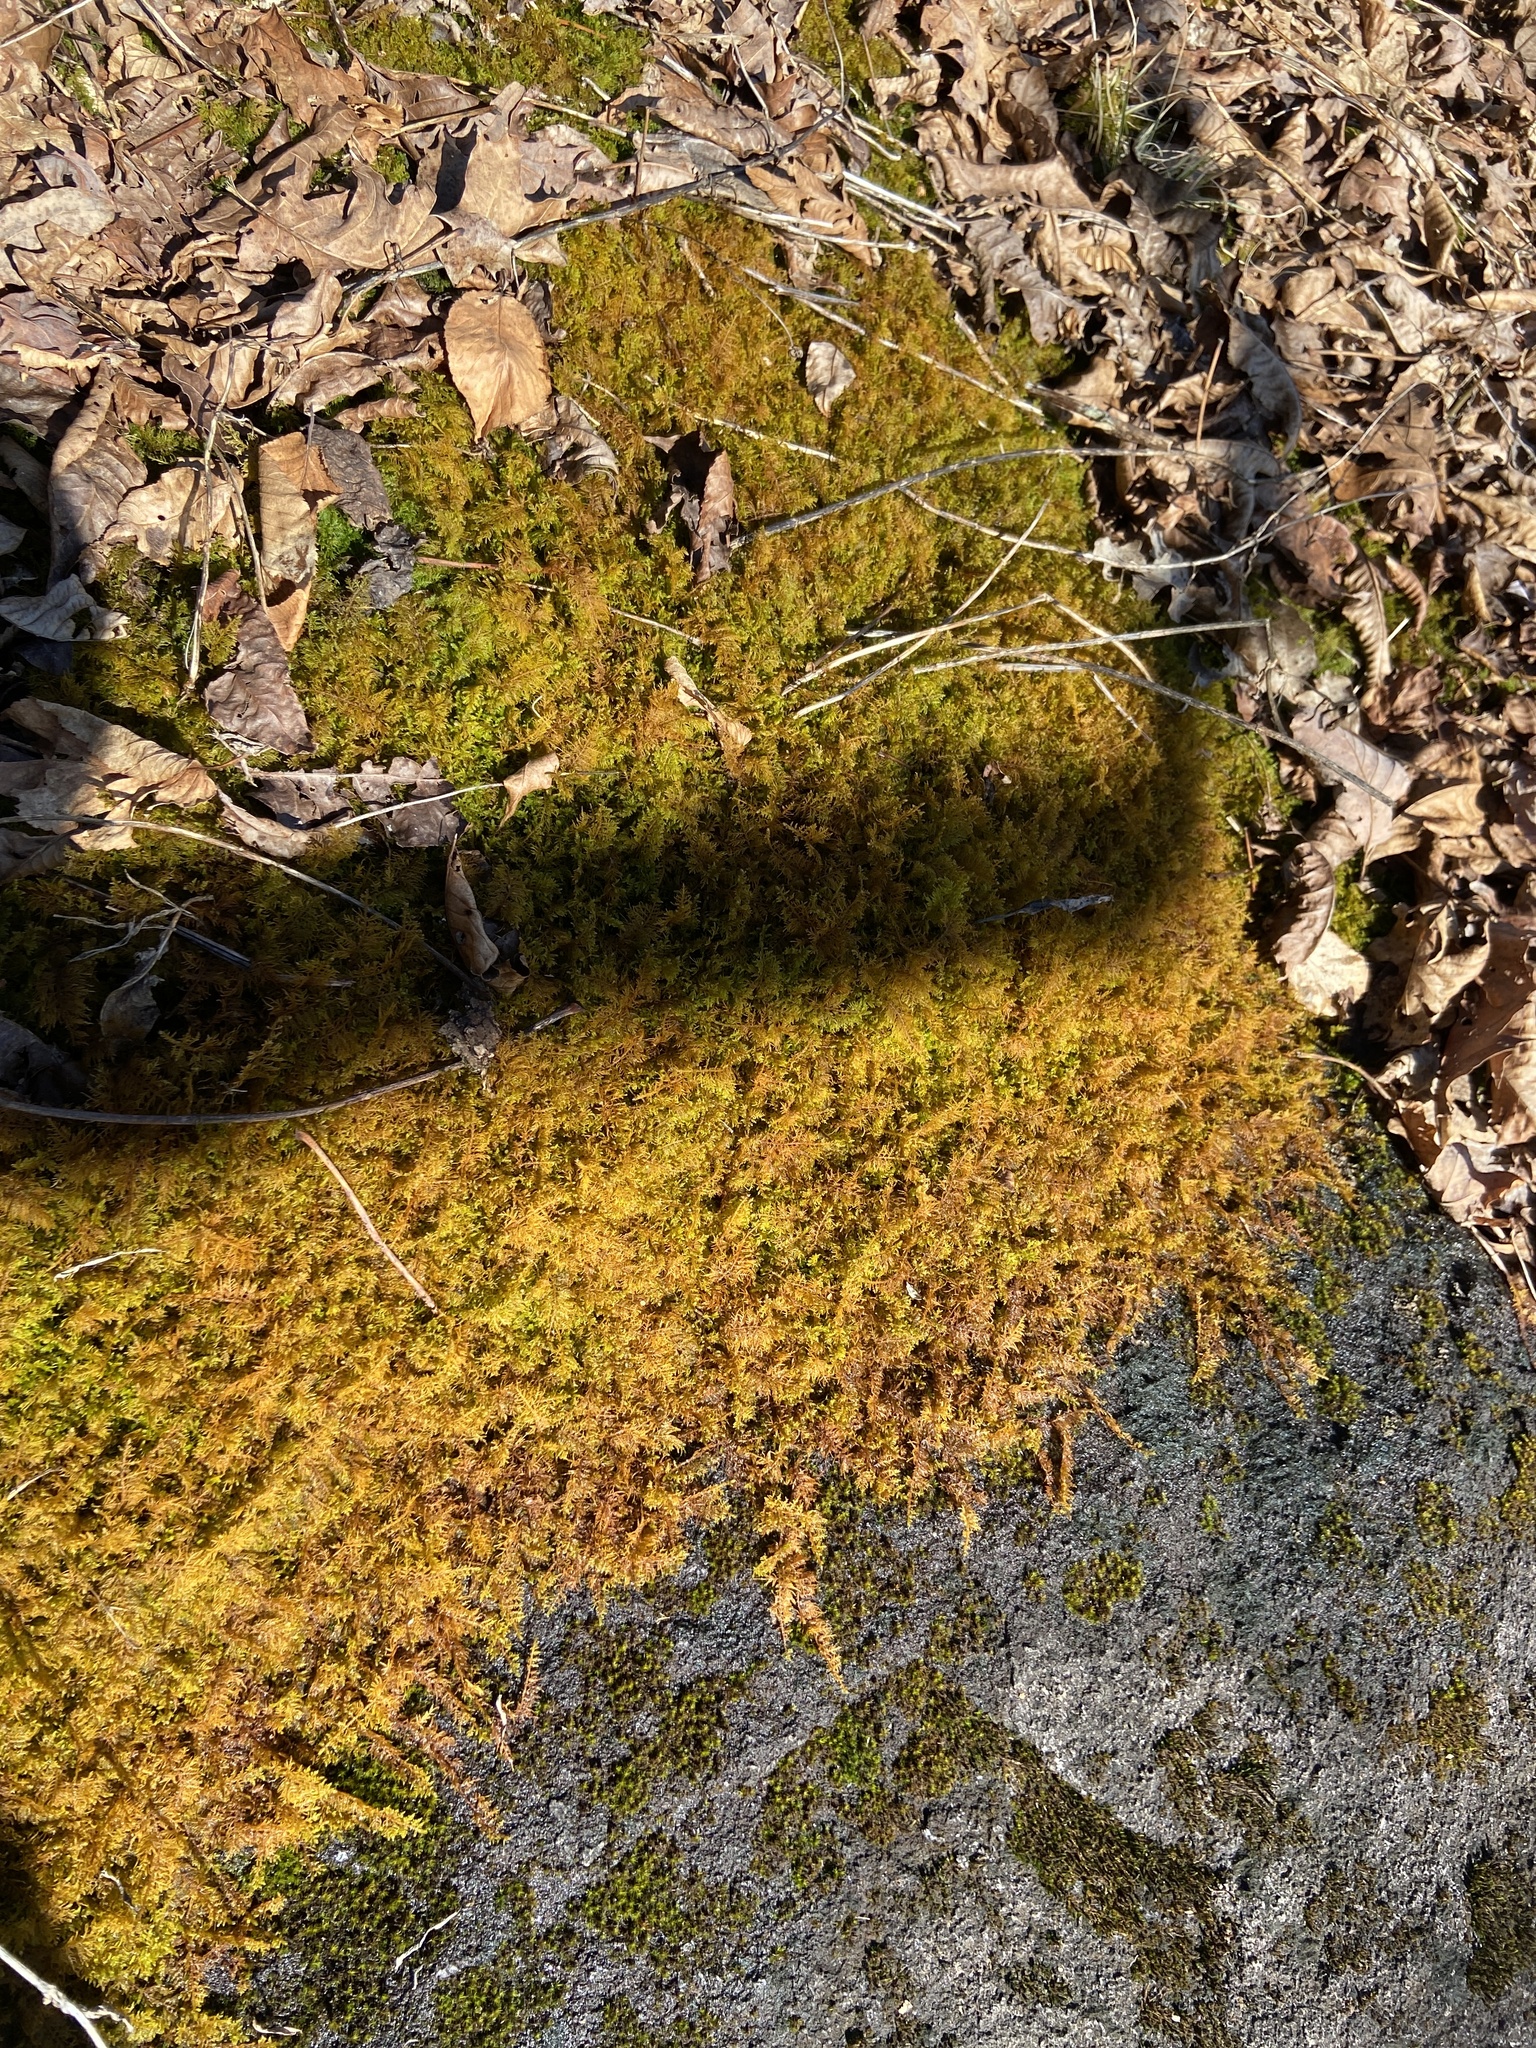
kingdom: Plantae
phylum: Bryophyta
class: Bryopsida
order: Hypnales
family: Thuidiaceae
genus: Thuidium
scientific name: Thuidium delicatulum
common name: Delicate fern moss
